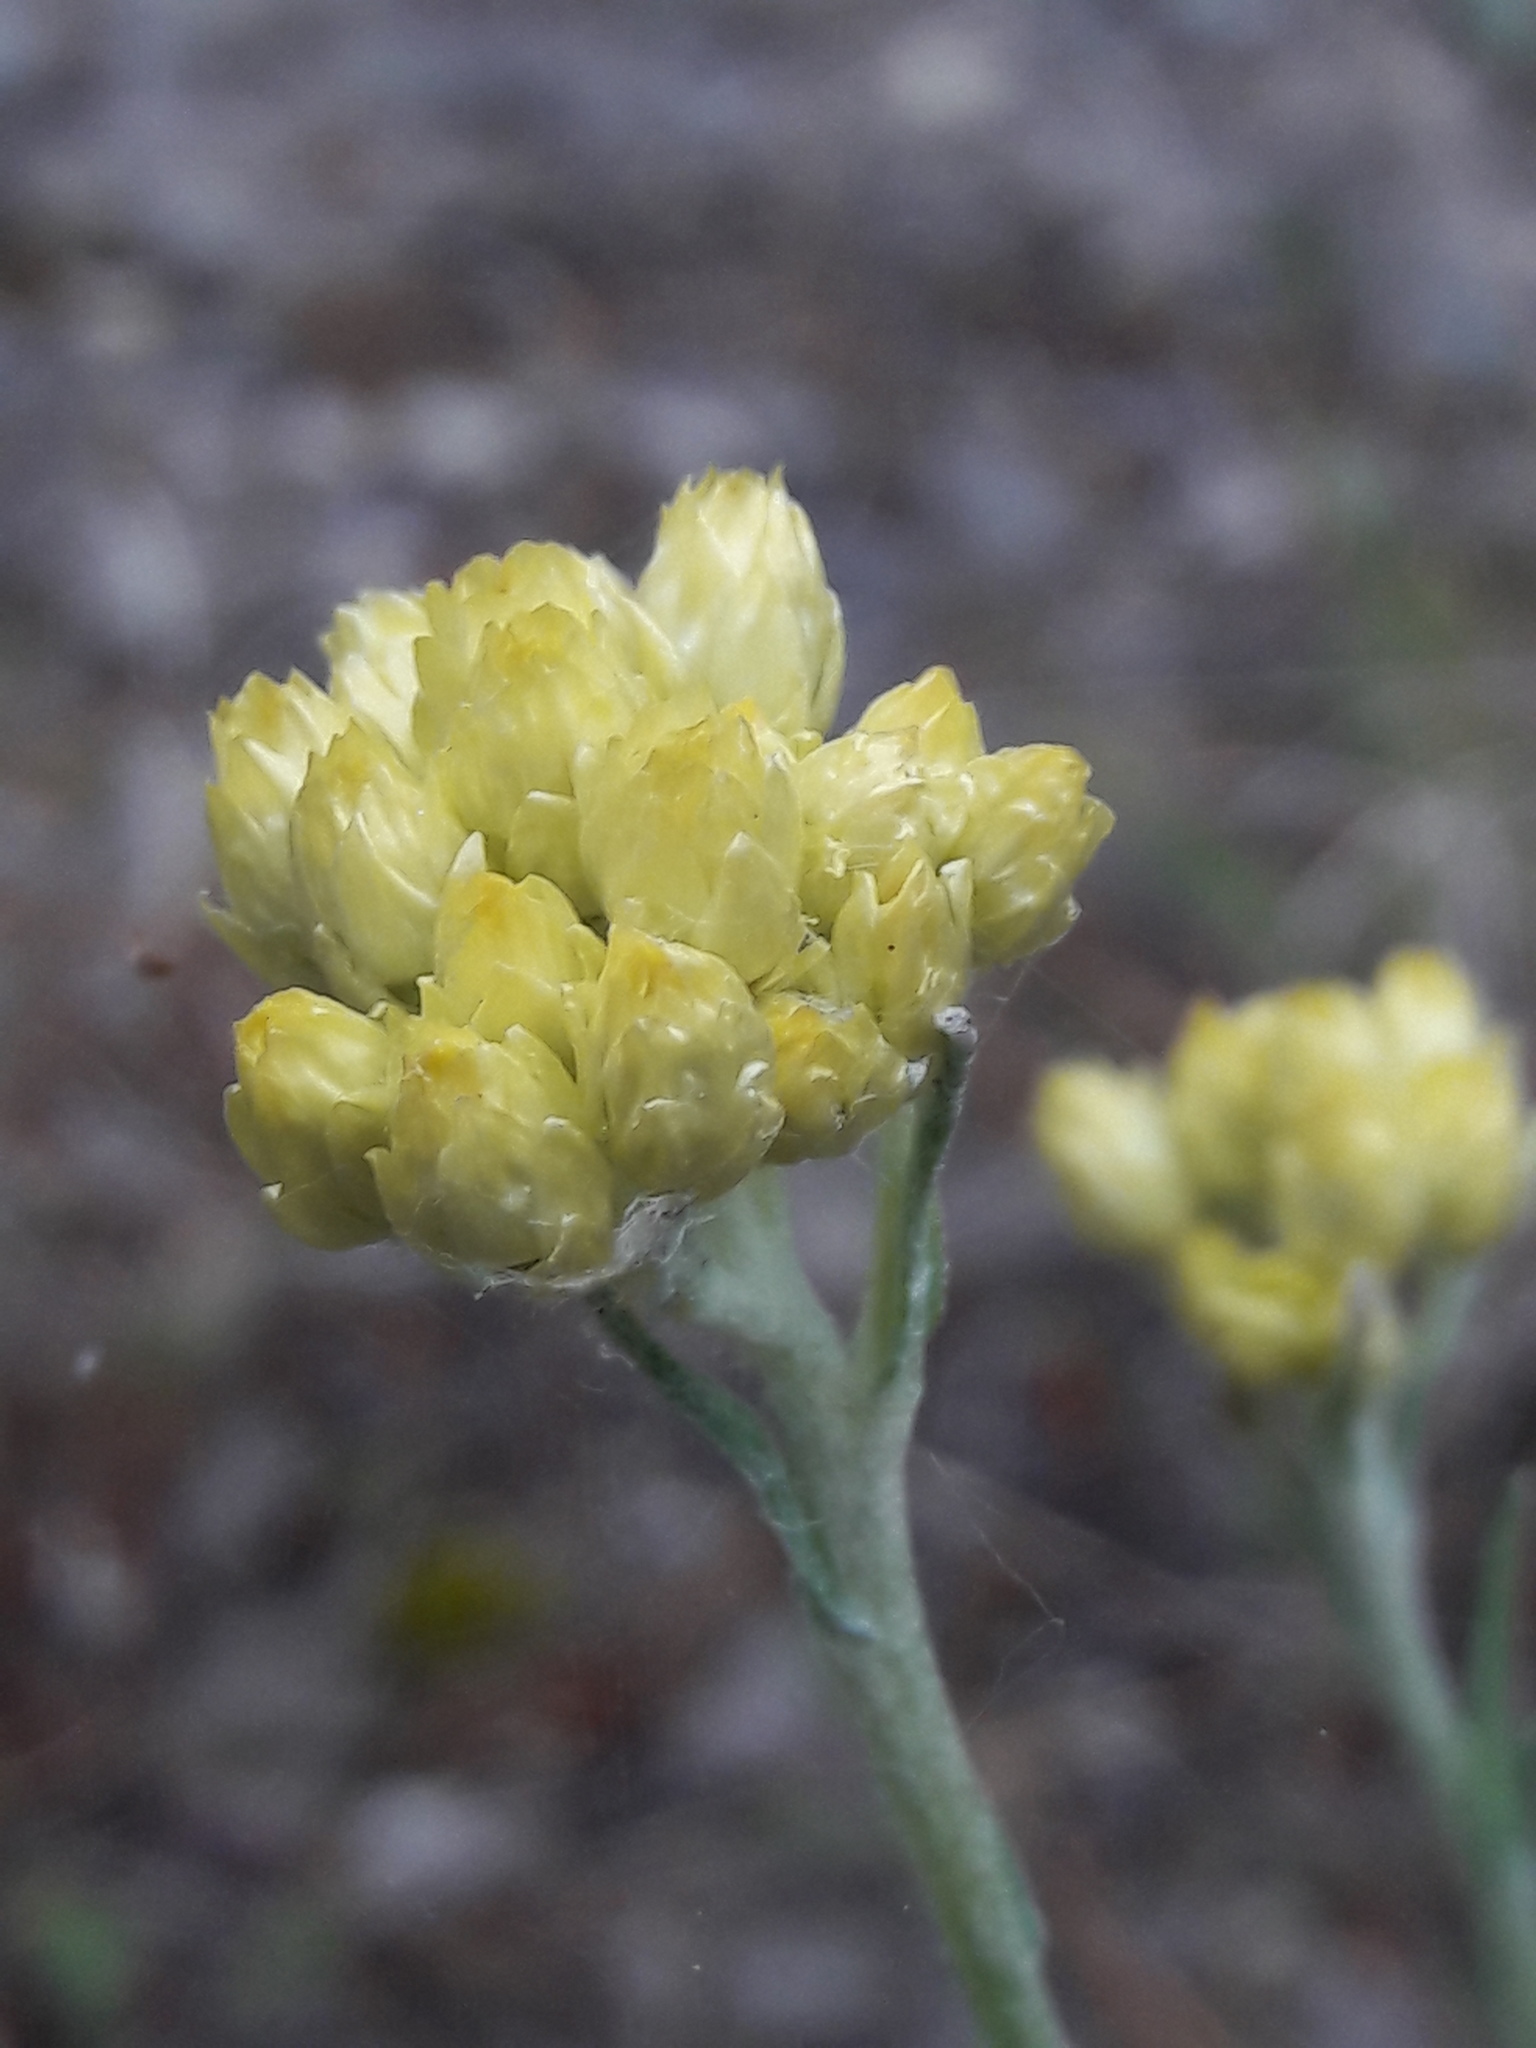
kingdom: Plantae
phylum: Tracheophyta
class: Magnoliopsida
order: Asterales
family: Asteraceae
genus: Helichrysum
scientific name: Helichrysum stoechas
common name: Goldilocks
